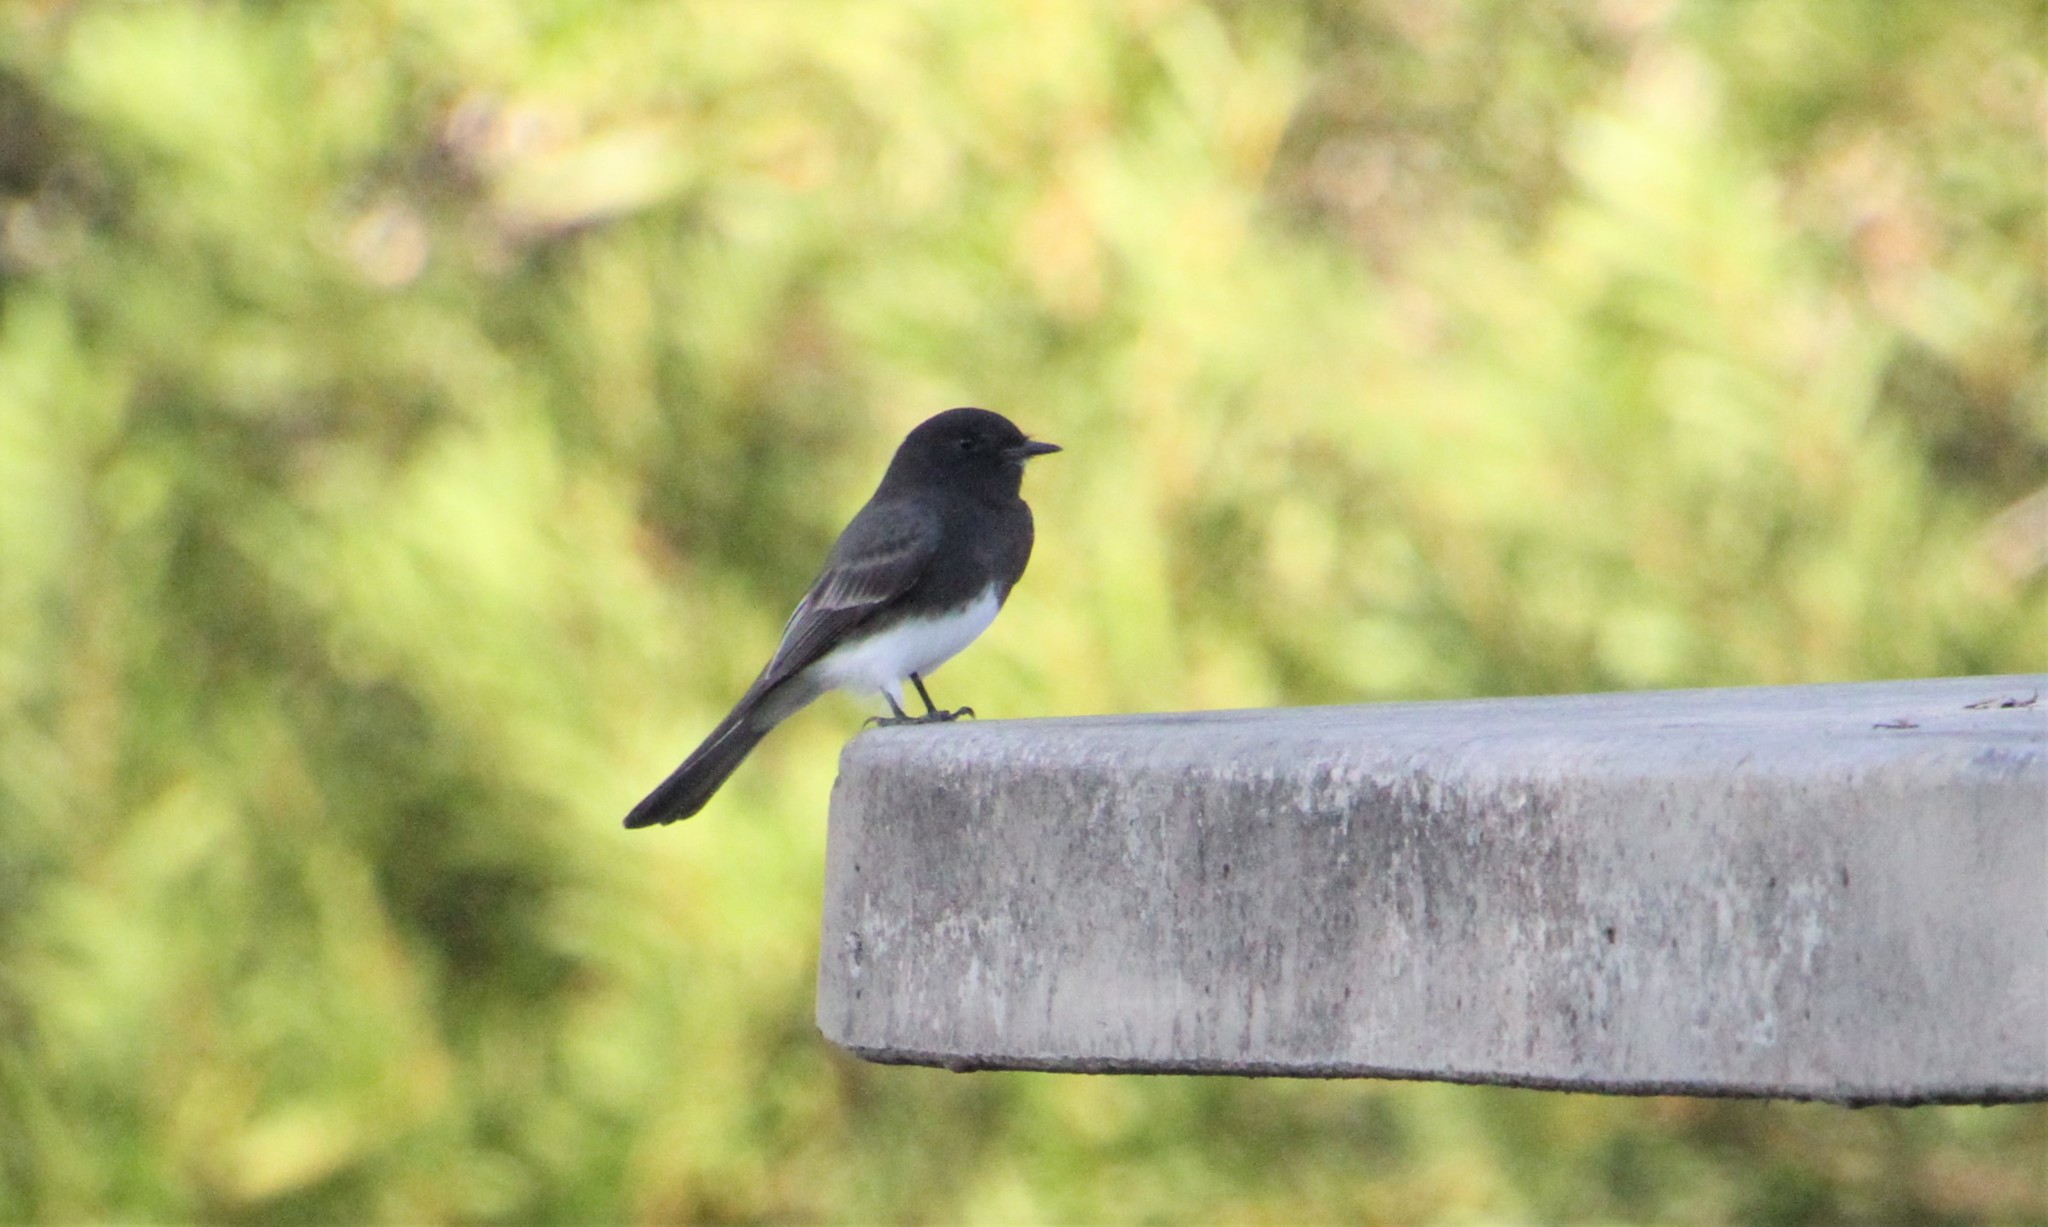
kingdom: Animalia
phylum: Chordata
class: Aves
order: Passeriformes
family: Tyrannidae
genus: Sayornis
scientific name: Sayornis nigricans
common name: Black phoebe
